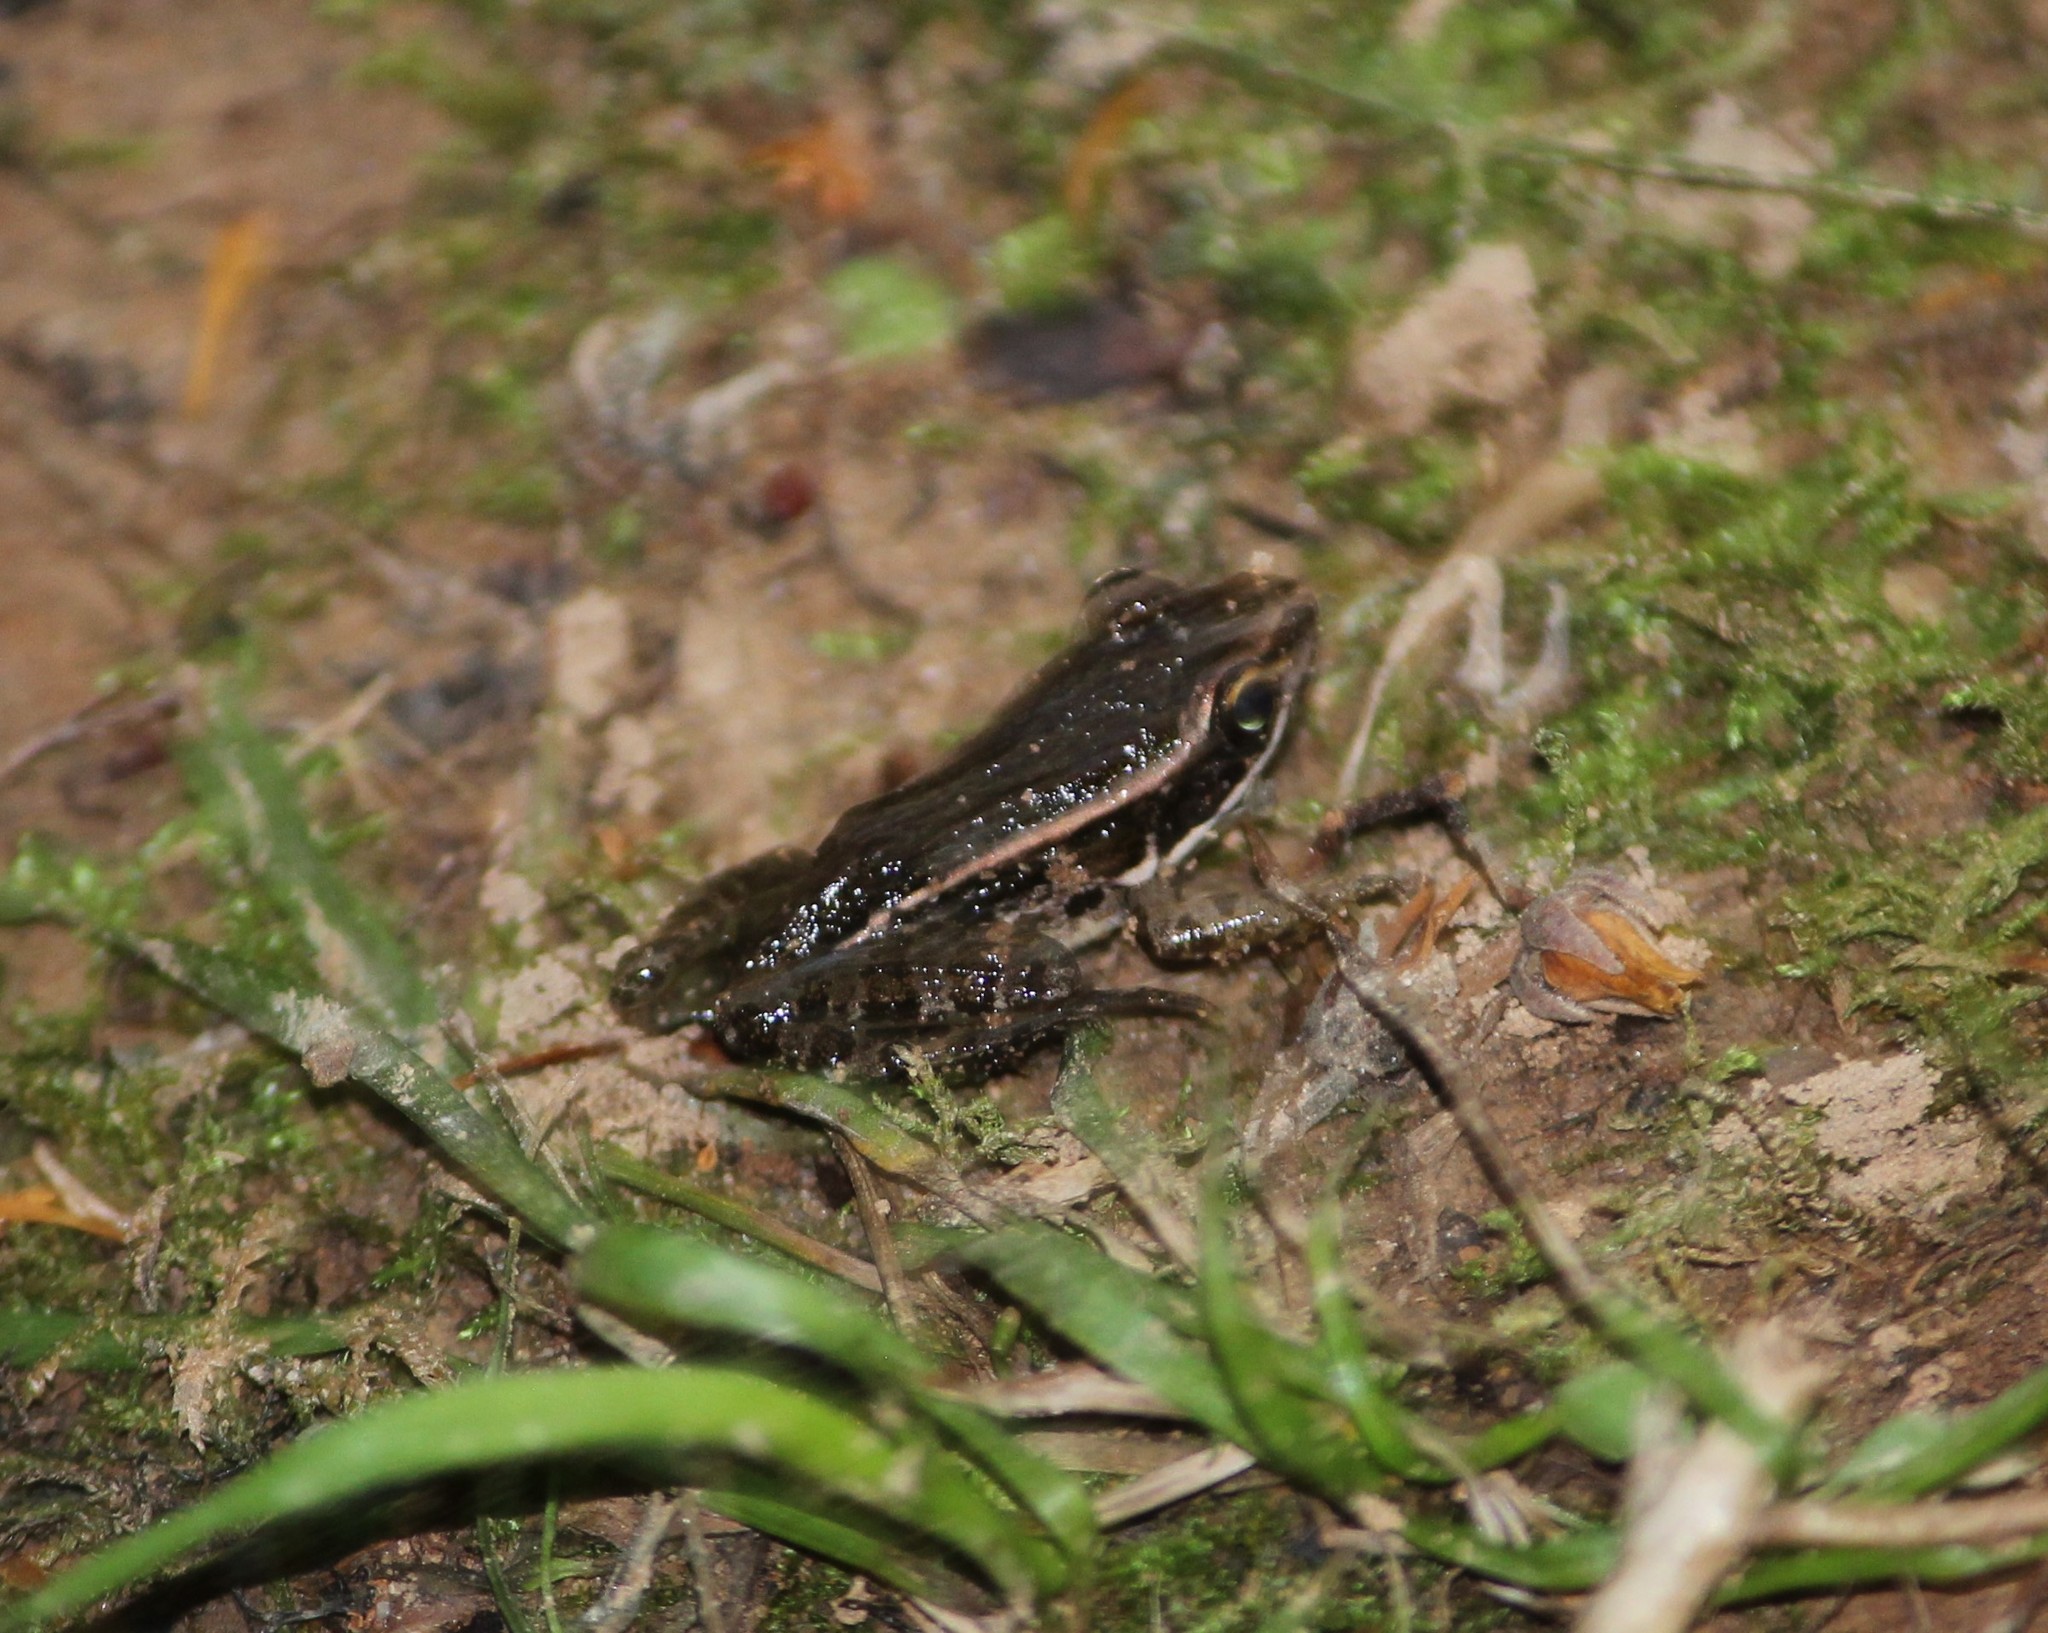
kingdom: Animalia
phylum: Chordata
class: Amphibia
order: Anura
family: Ranidae
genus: Lithobates
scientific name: Lithobates palustris
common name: Pickerel frog
